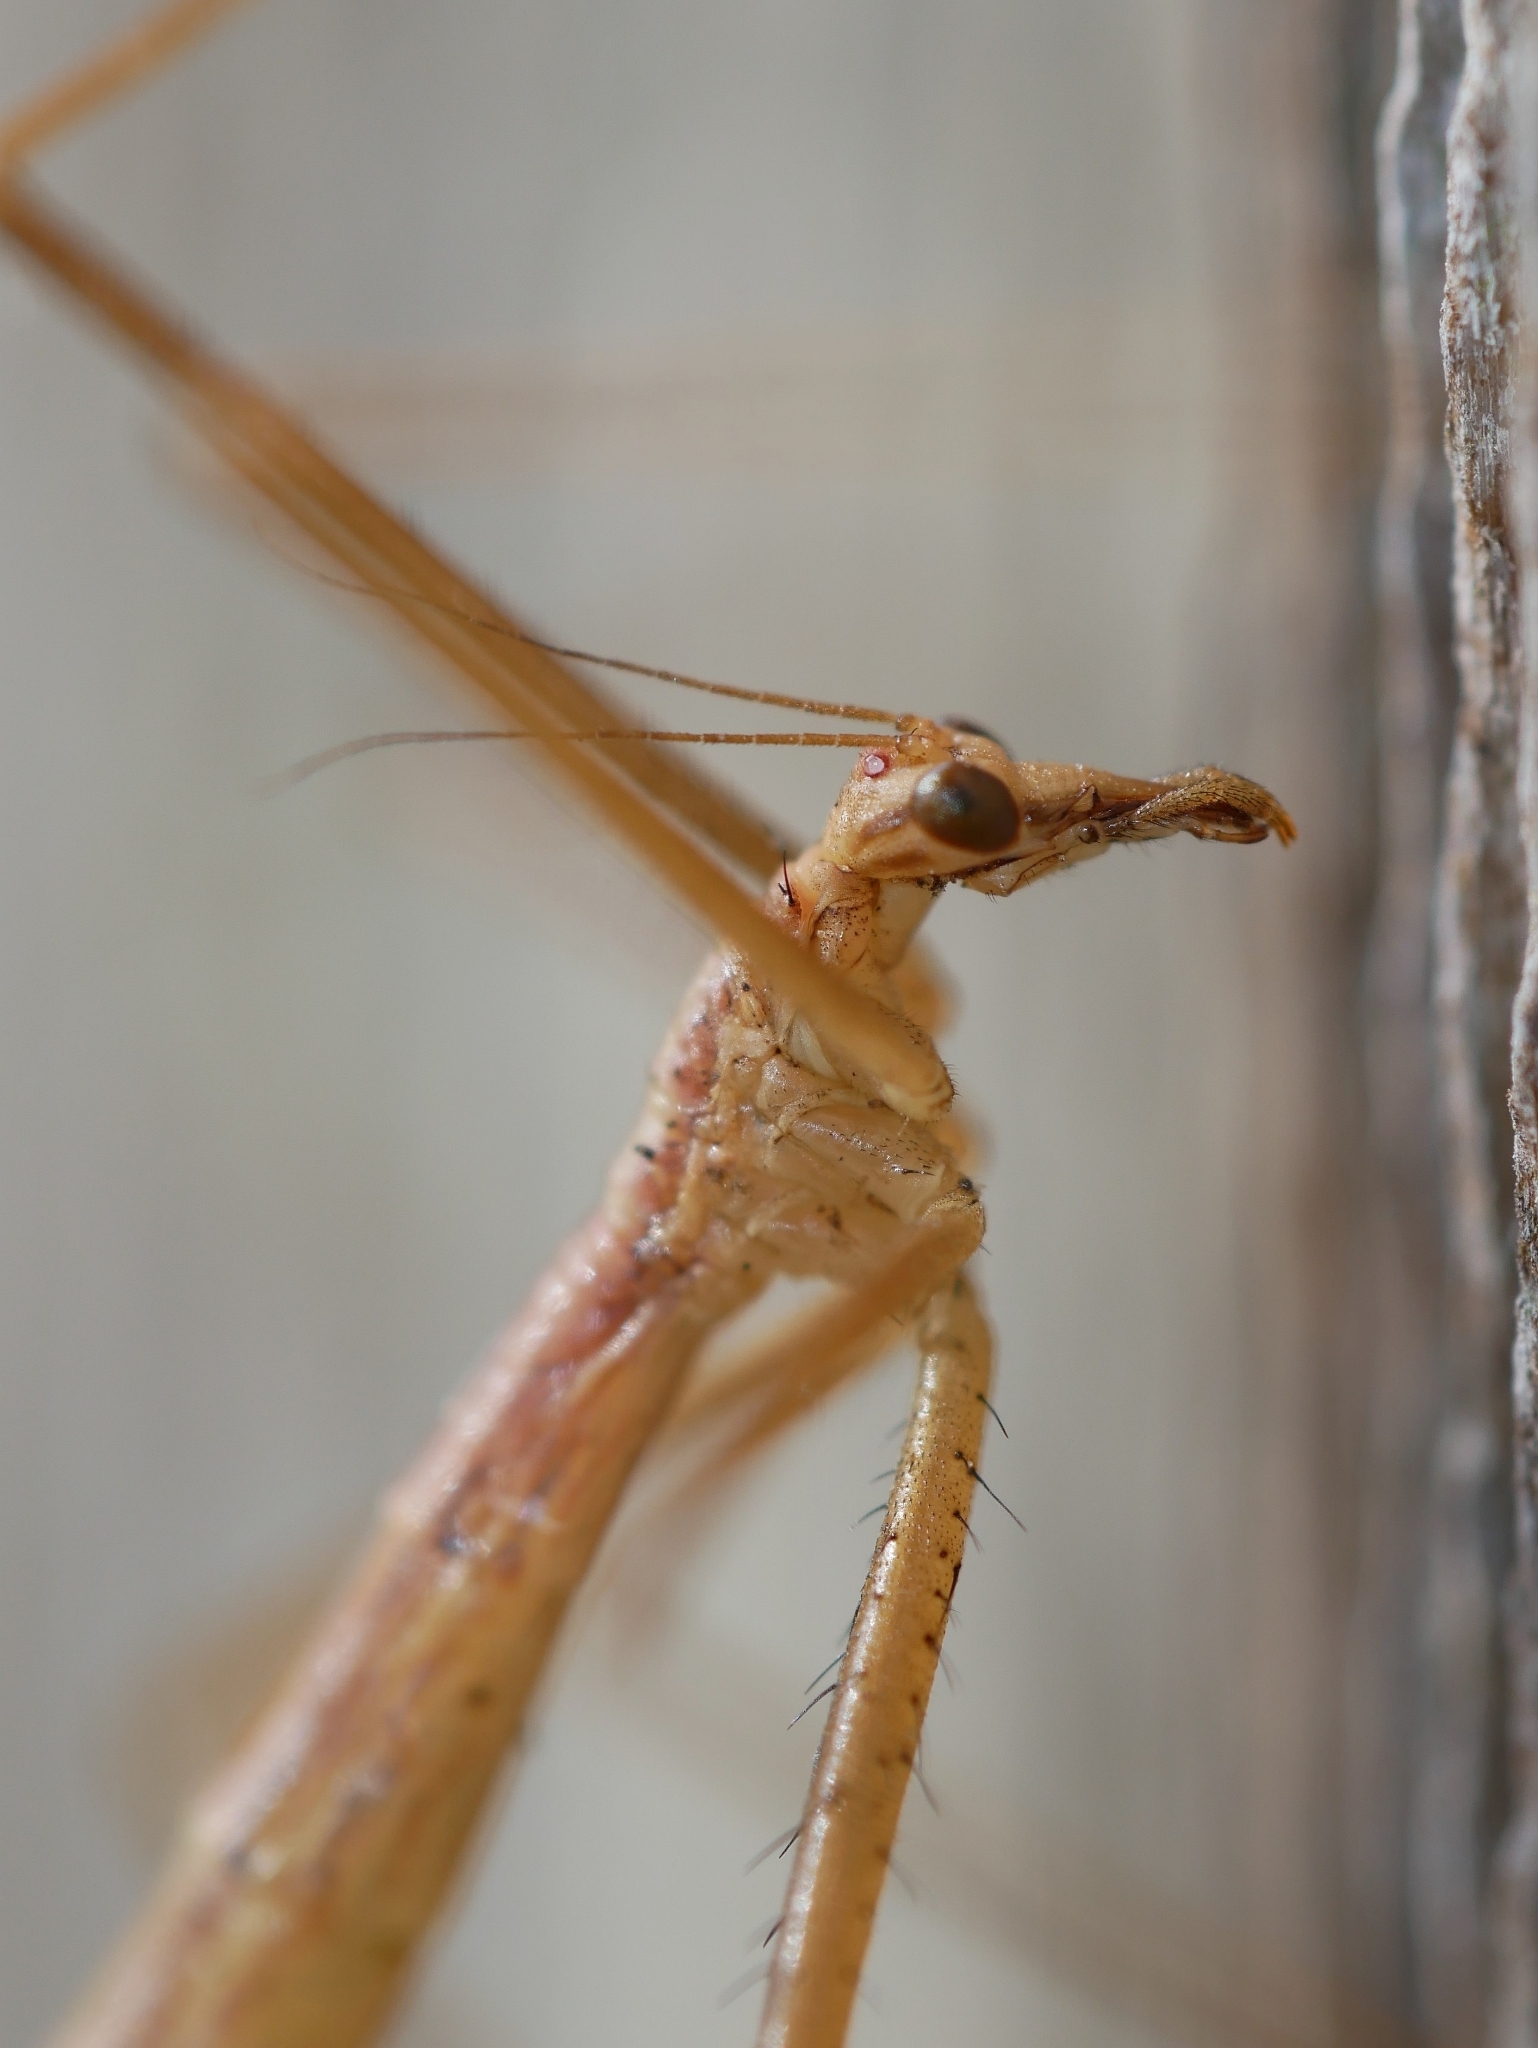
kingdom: Animalia
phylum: Arthropoda
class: Insecta
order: Mecoptera
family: Bittacidae
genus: Apterobittacus
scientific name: Apterobittacus apterus
